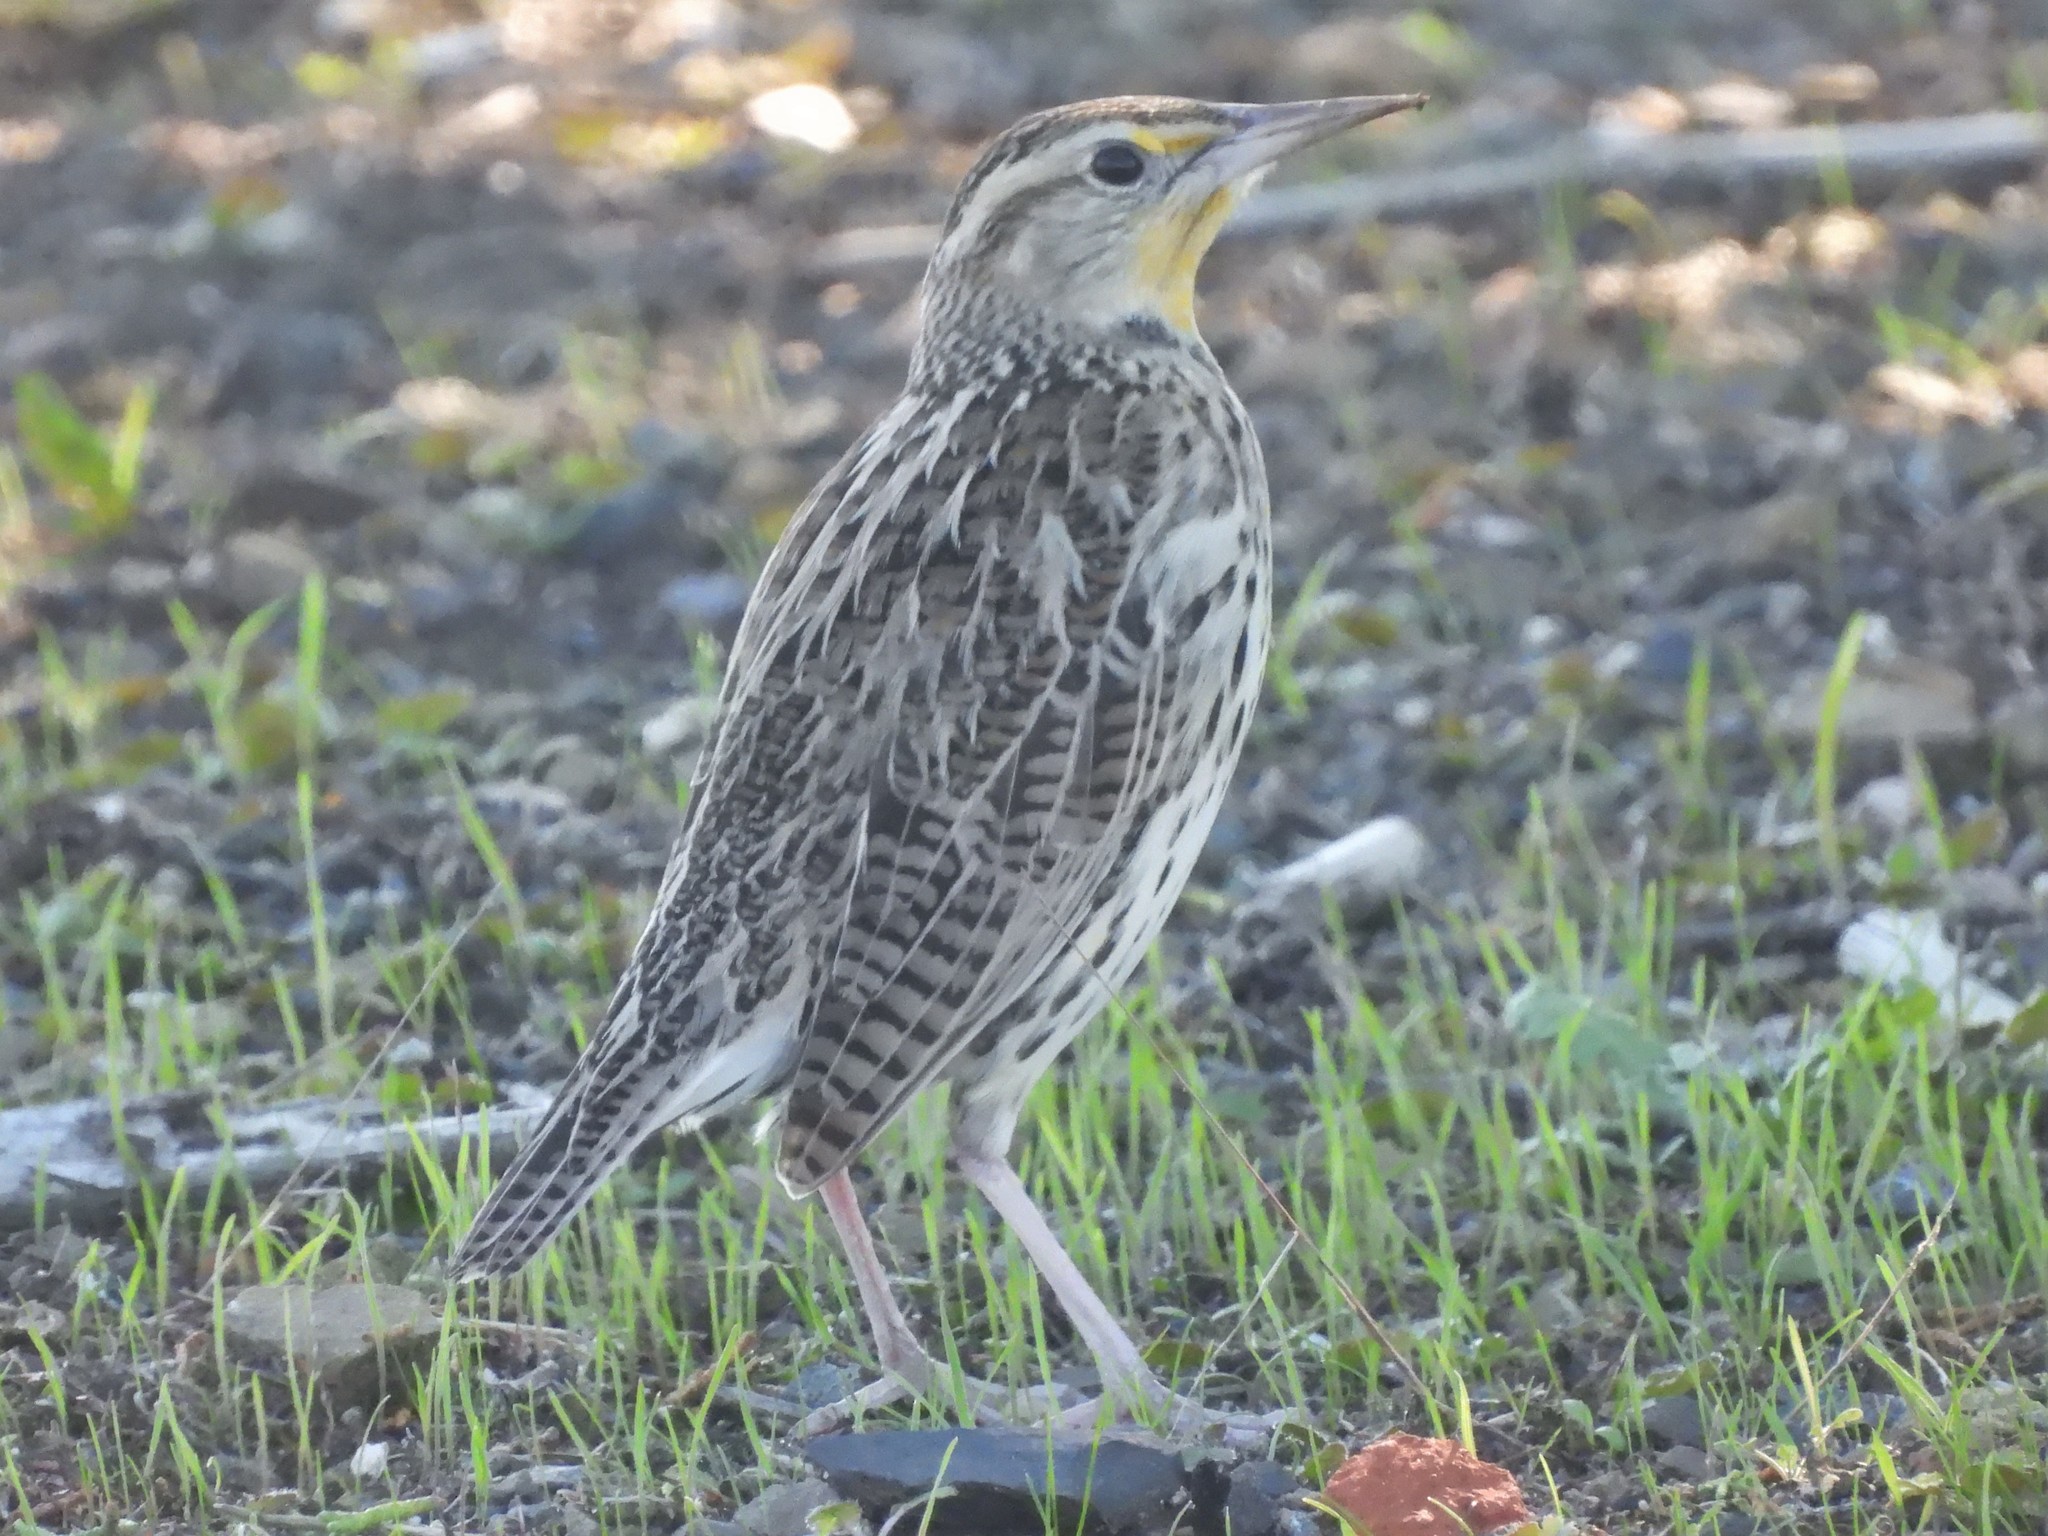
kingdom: Animalia
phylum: Chordata
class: Aves
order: Passeriformes
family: Icteridae
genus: Sturnella
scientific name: Sturnella neglecta
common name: Western meadowlark
